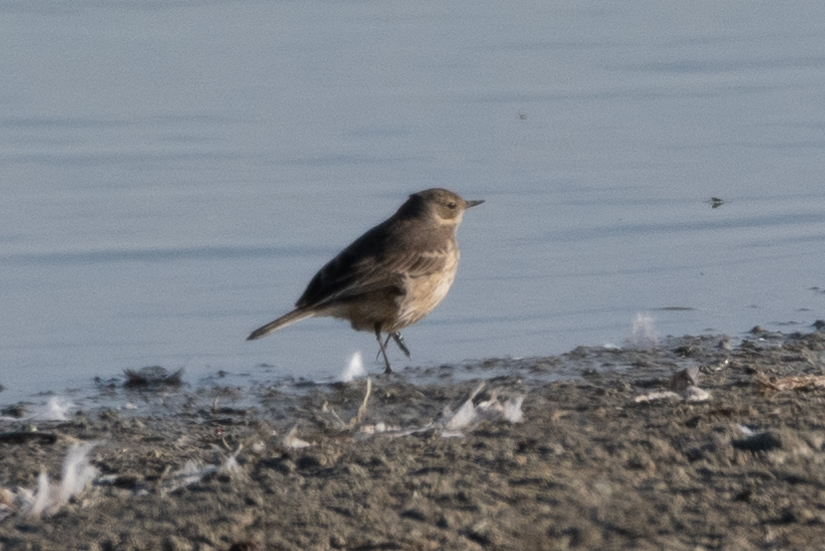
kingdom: Animalia
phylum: Chordata
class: Aves
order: Passeriformes
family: Motacillidae
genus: Anthus
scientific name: Anthus rubescens
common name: Buff-bellied pipit
